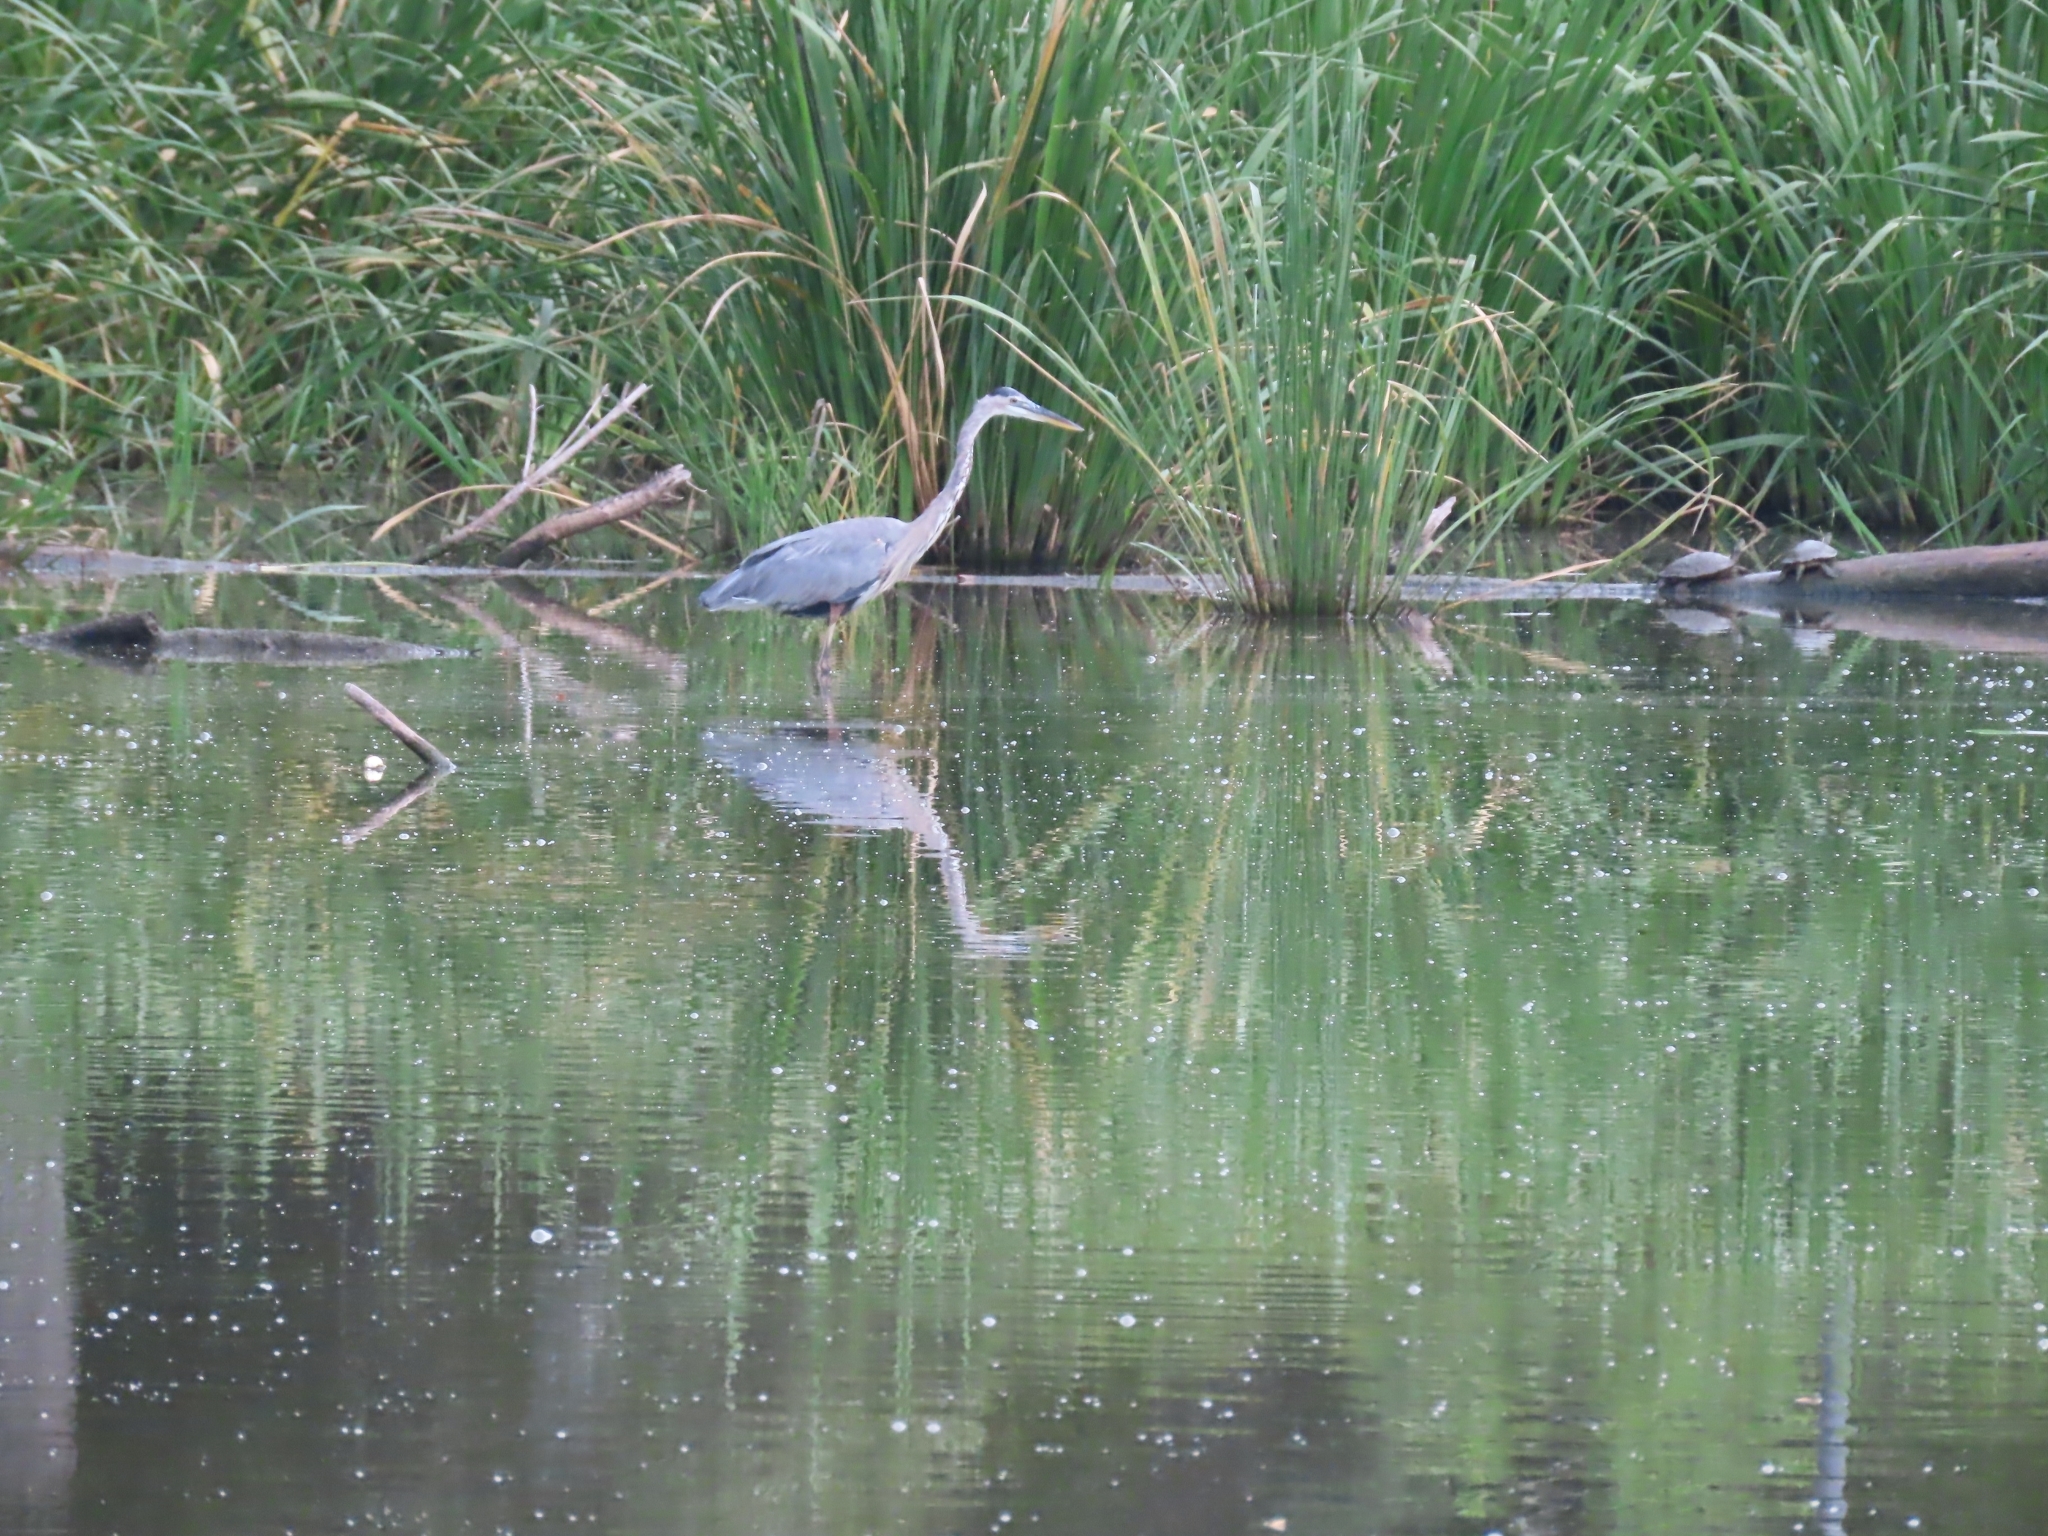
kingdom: Animalia
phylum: Chordata
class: Aves
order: Pelecaniformes
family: Ardeidae
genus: Ardea
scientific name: Ardea herodias
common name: Great blue heron
